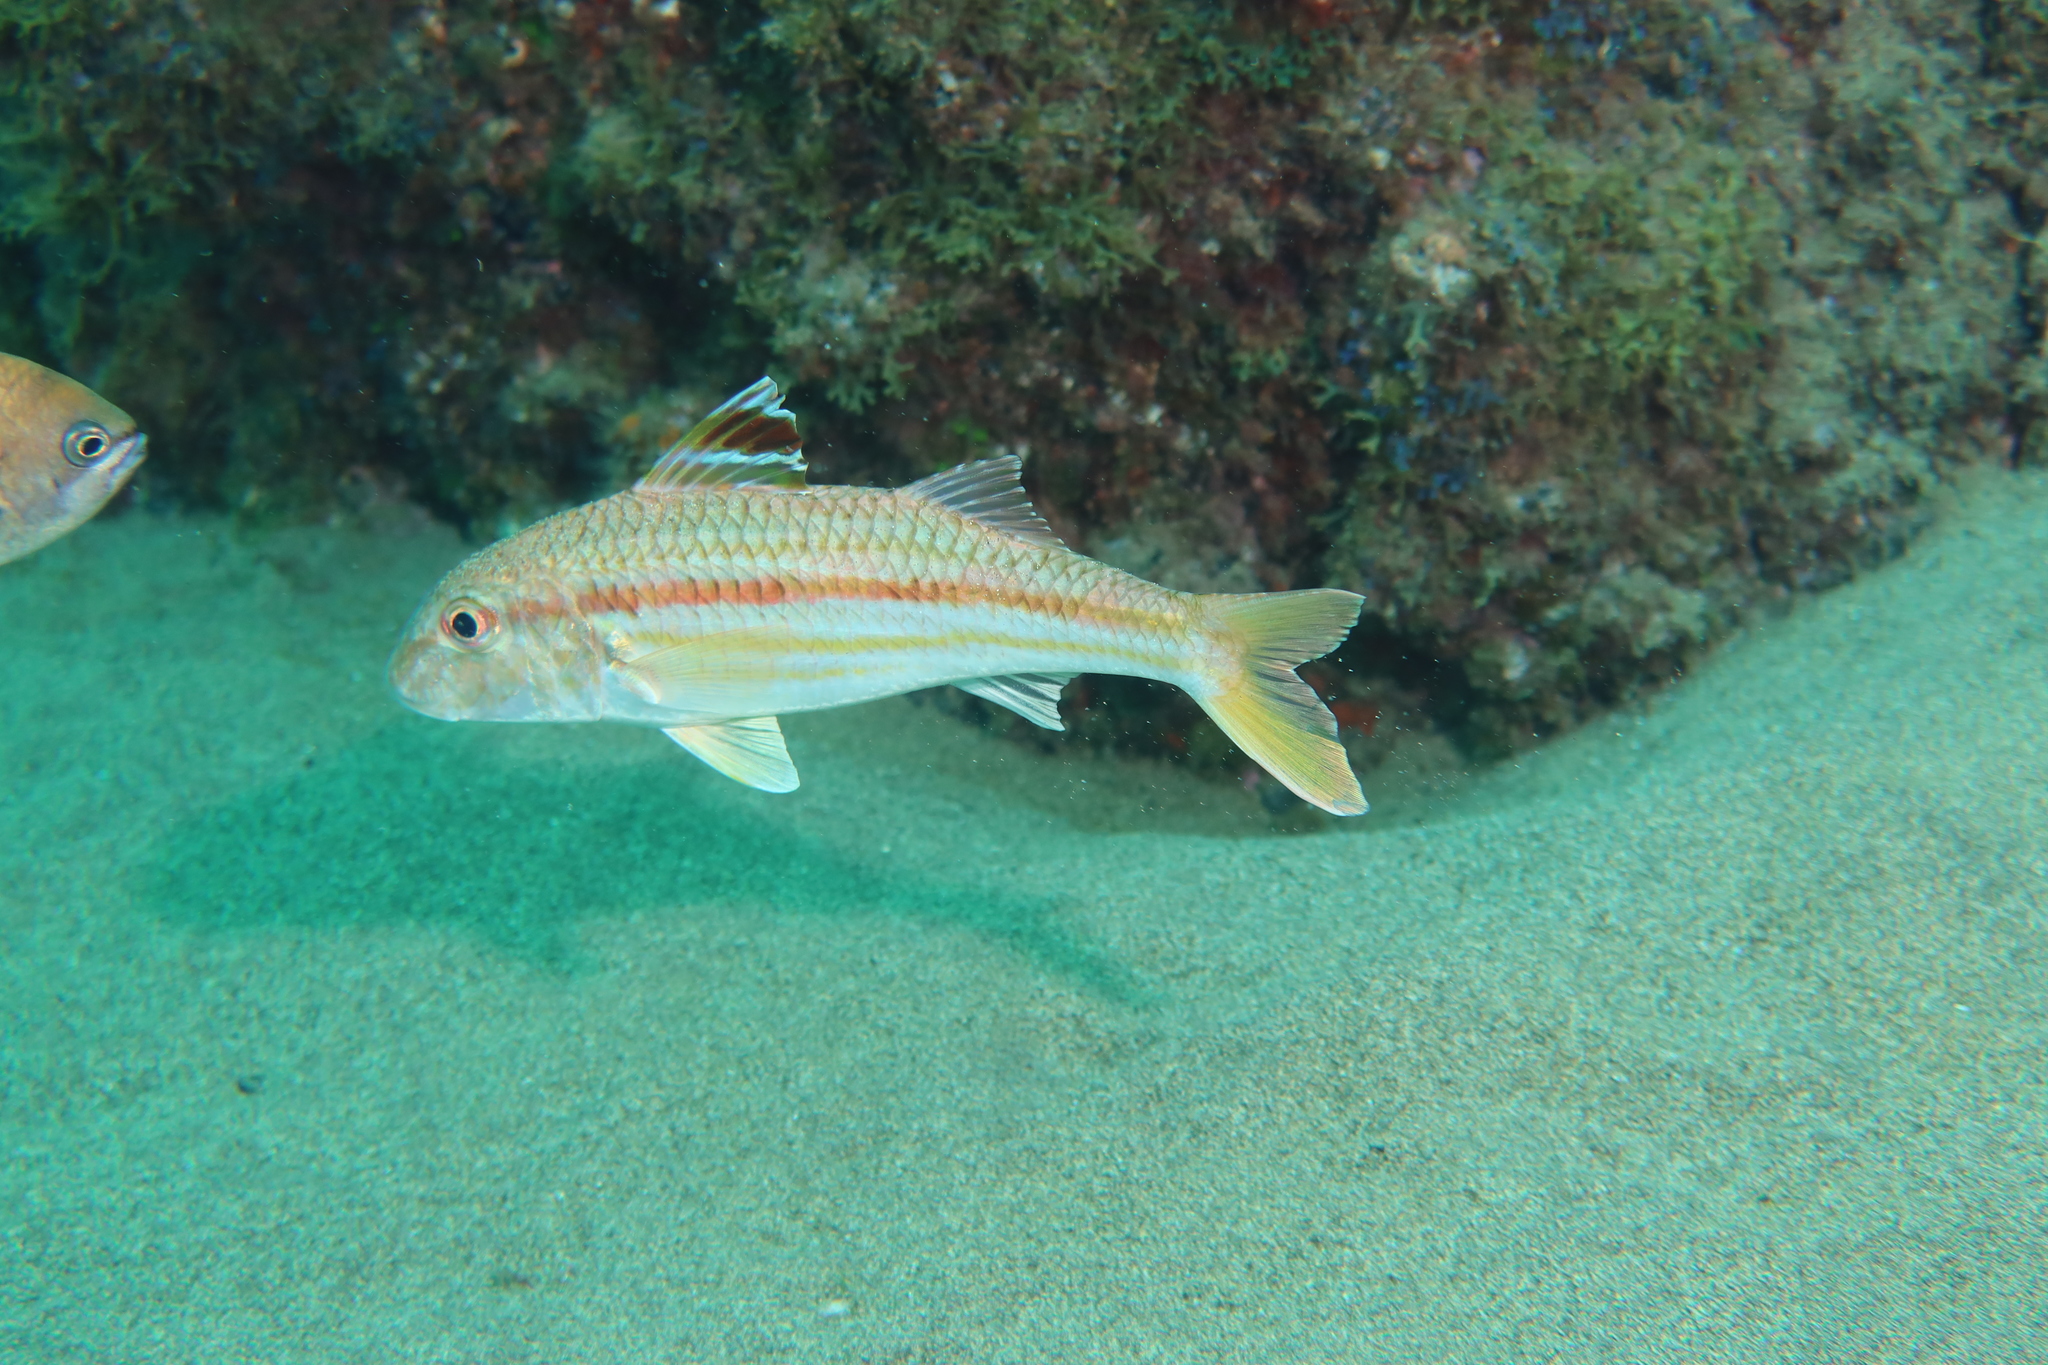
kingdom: Animalia
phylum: Chordata
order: Perciformes
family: Mullidae
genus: Mullus
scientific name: Mullus surmuletus
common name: Red mullet
